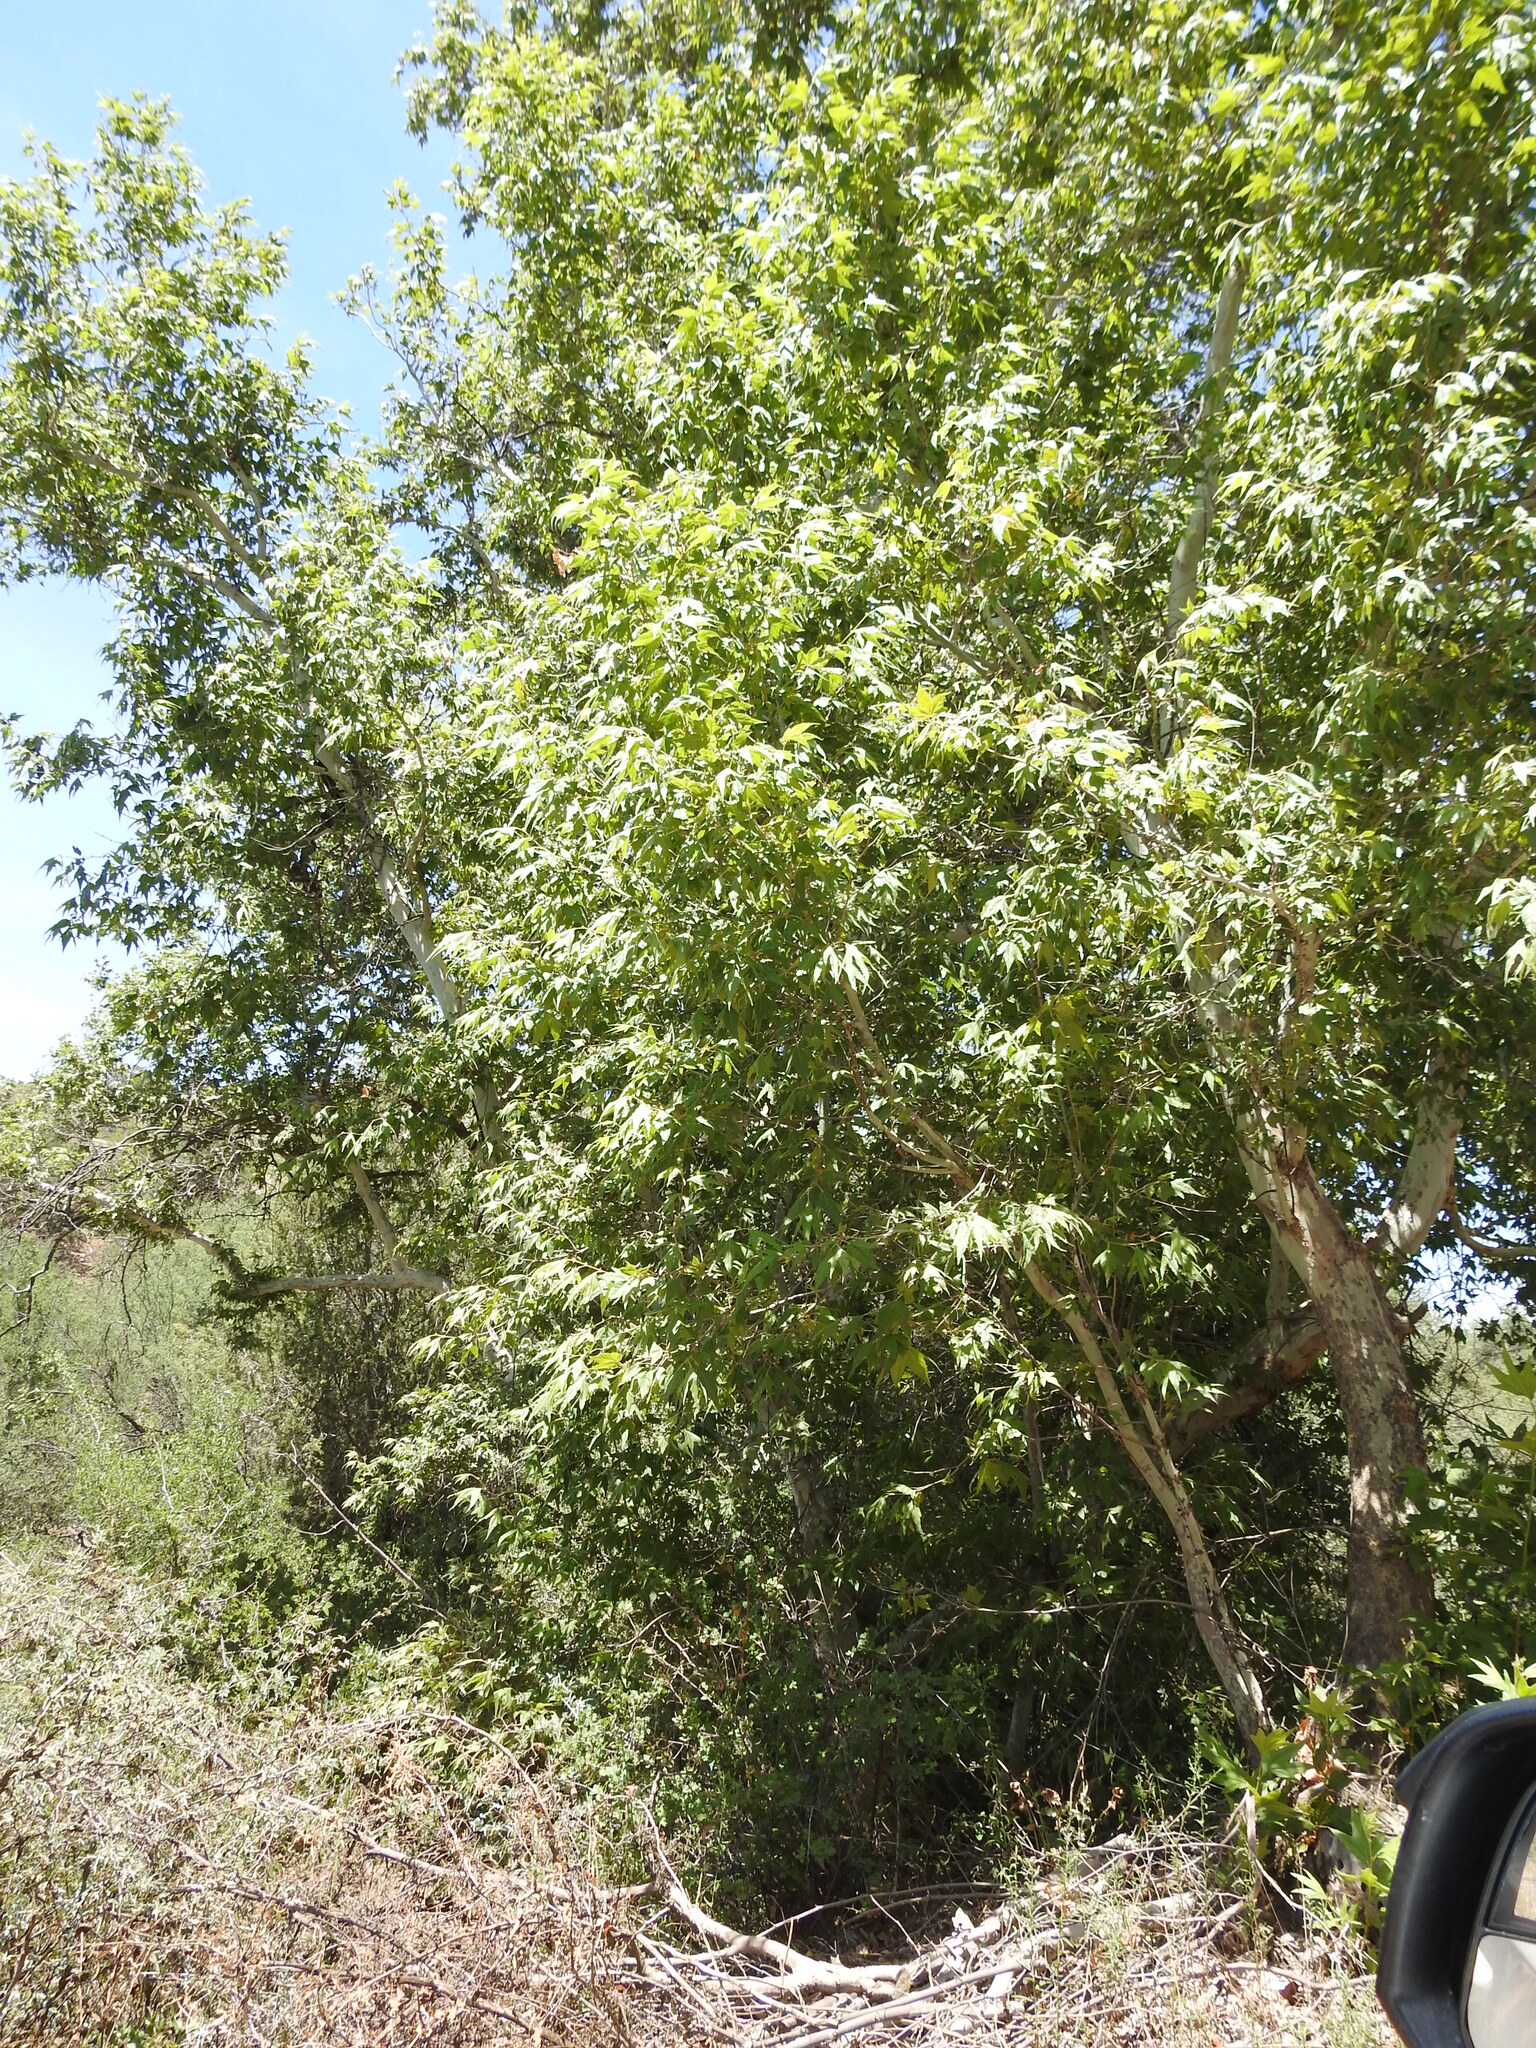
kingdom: Plantae
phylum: Tracheophyta
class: Magnoliopsida
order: Proteales
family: Platanaceae
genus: Platanus
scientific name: Platanus wrightii
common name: Arizona sycamore
